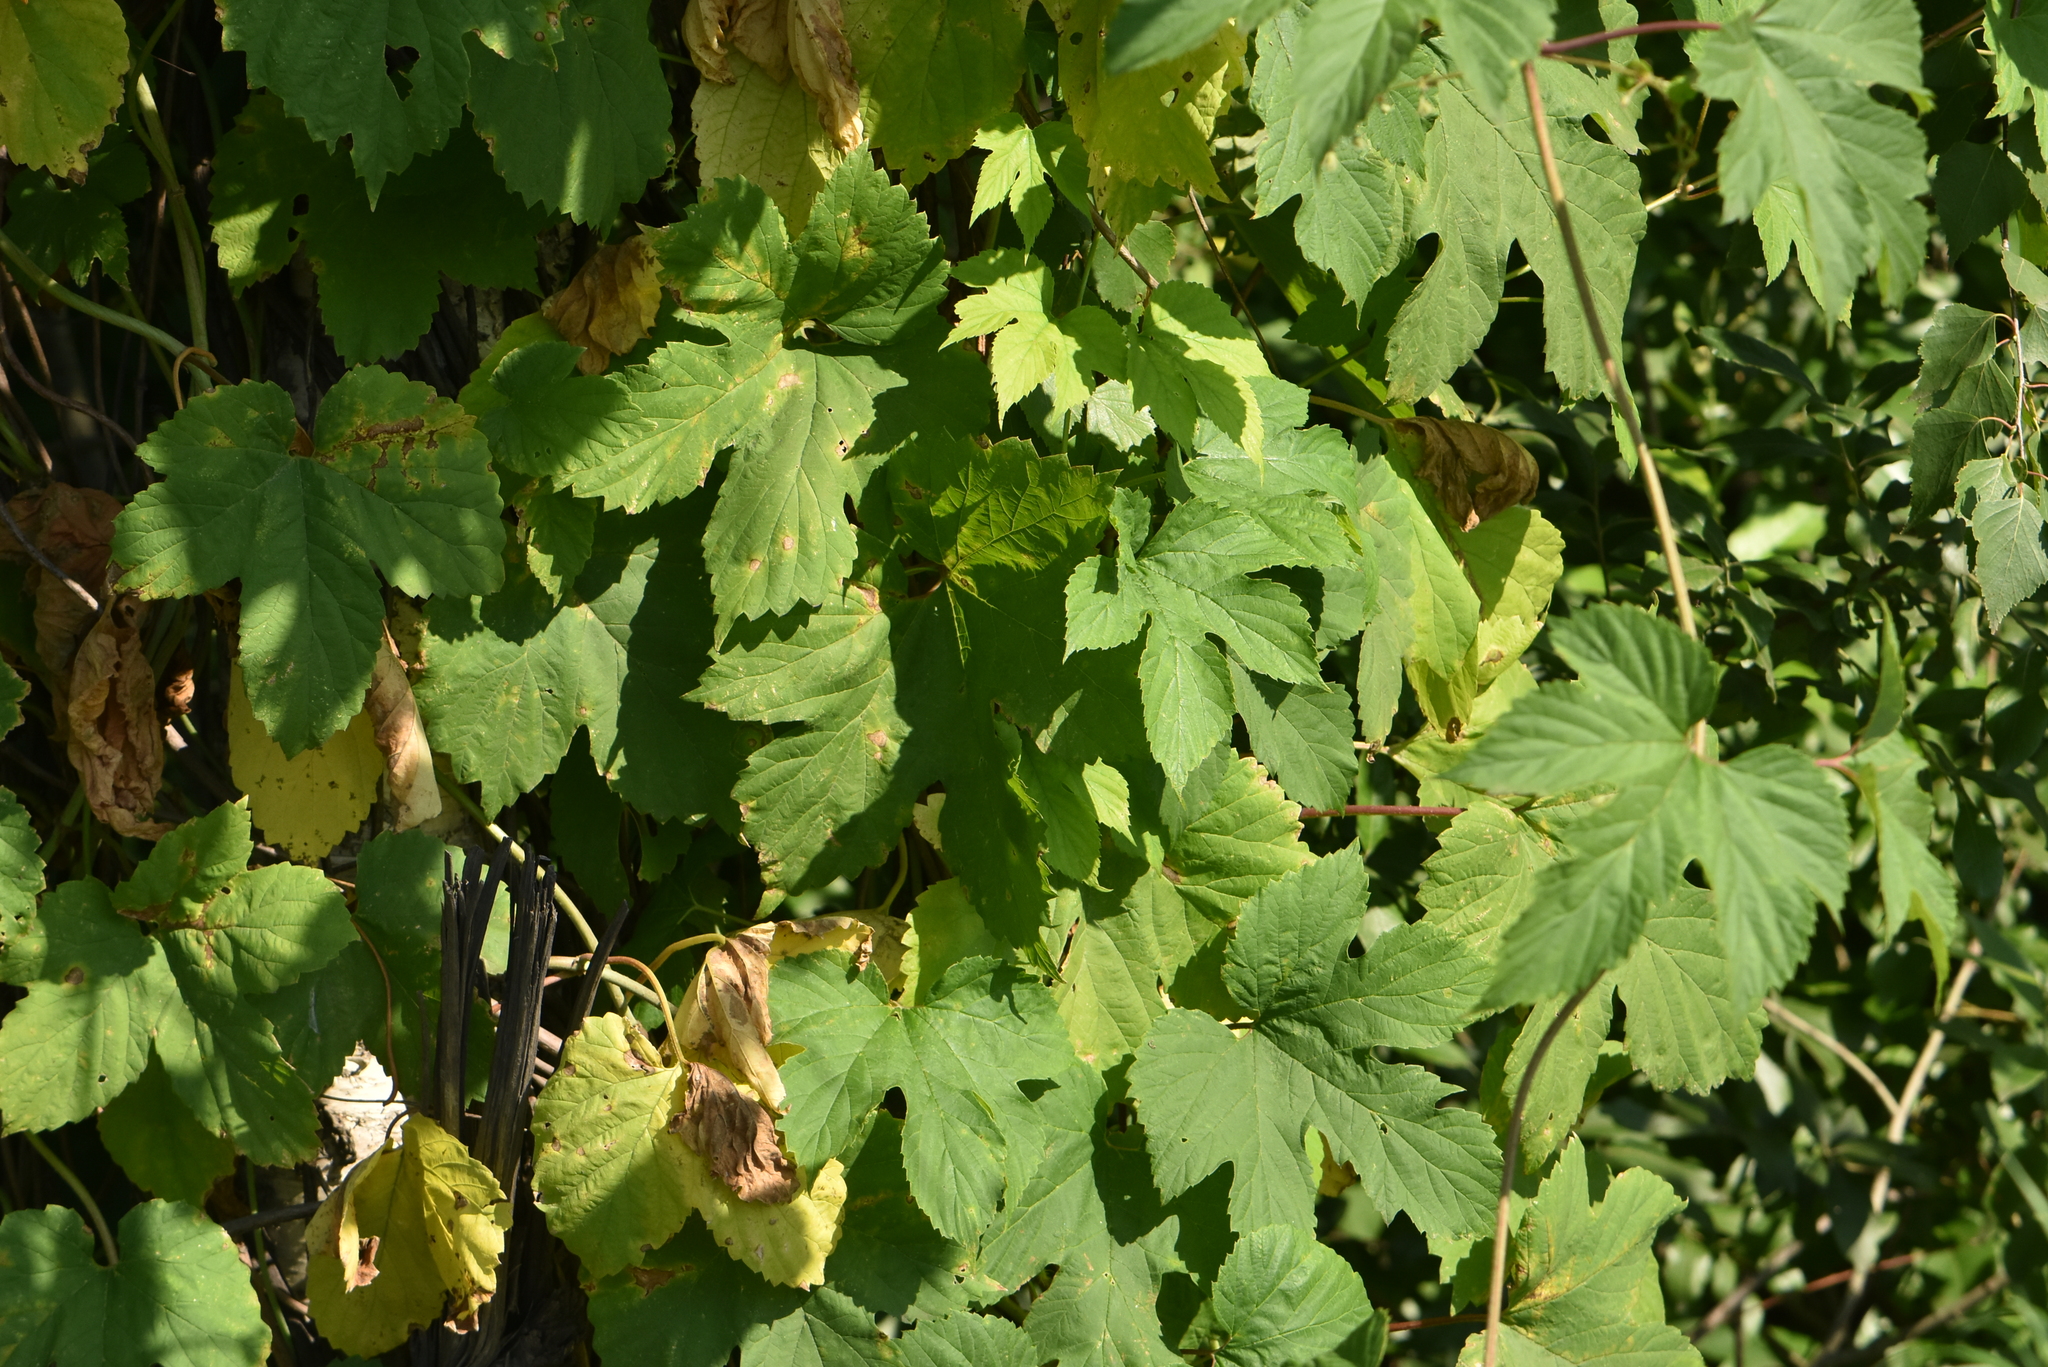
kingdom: Plantae
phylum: Tracheophyta
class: Magnoliopsida
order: Rosales
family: Cannabaceae
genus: Humulus
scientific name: Humulus lupulus
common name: Hop
